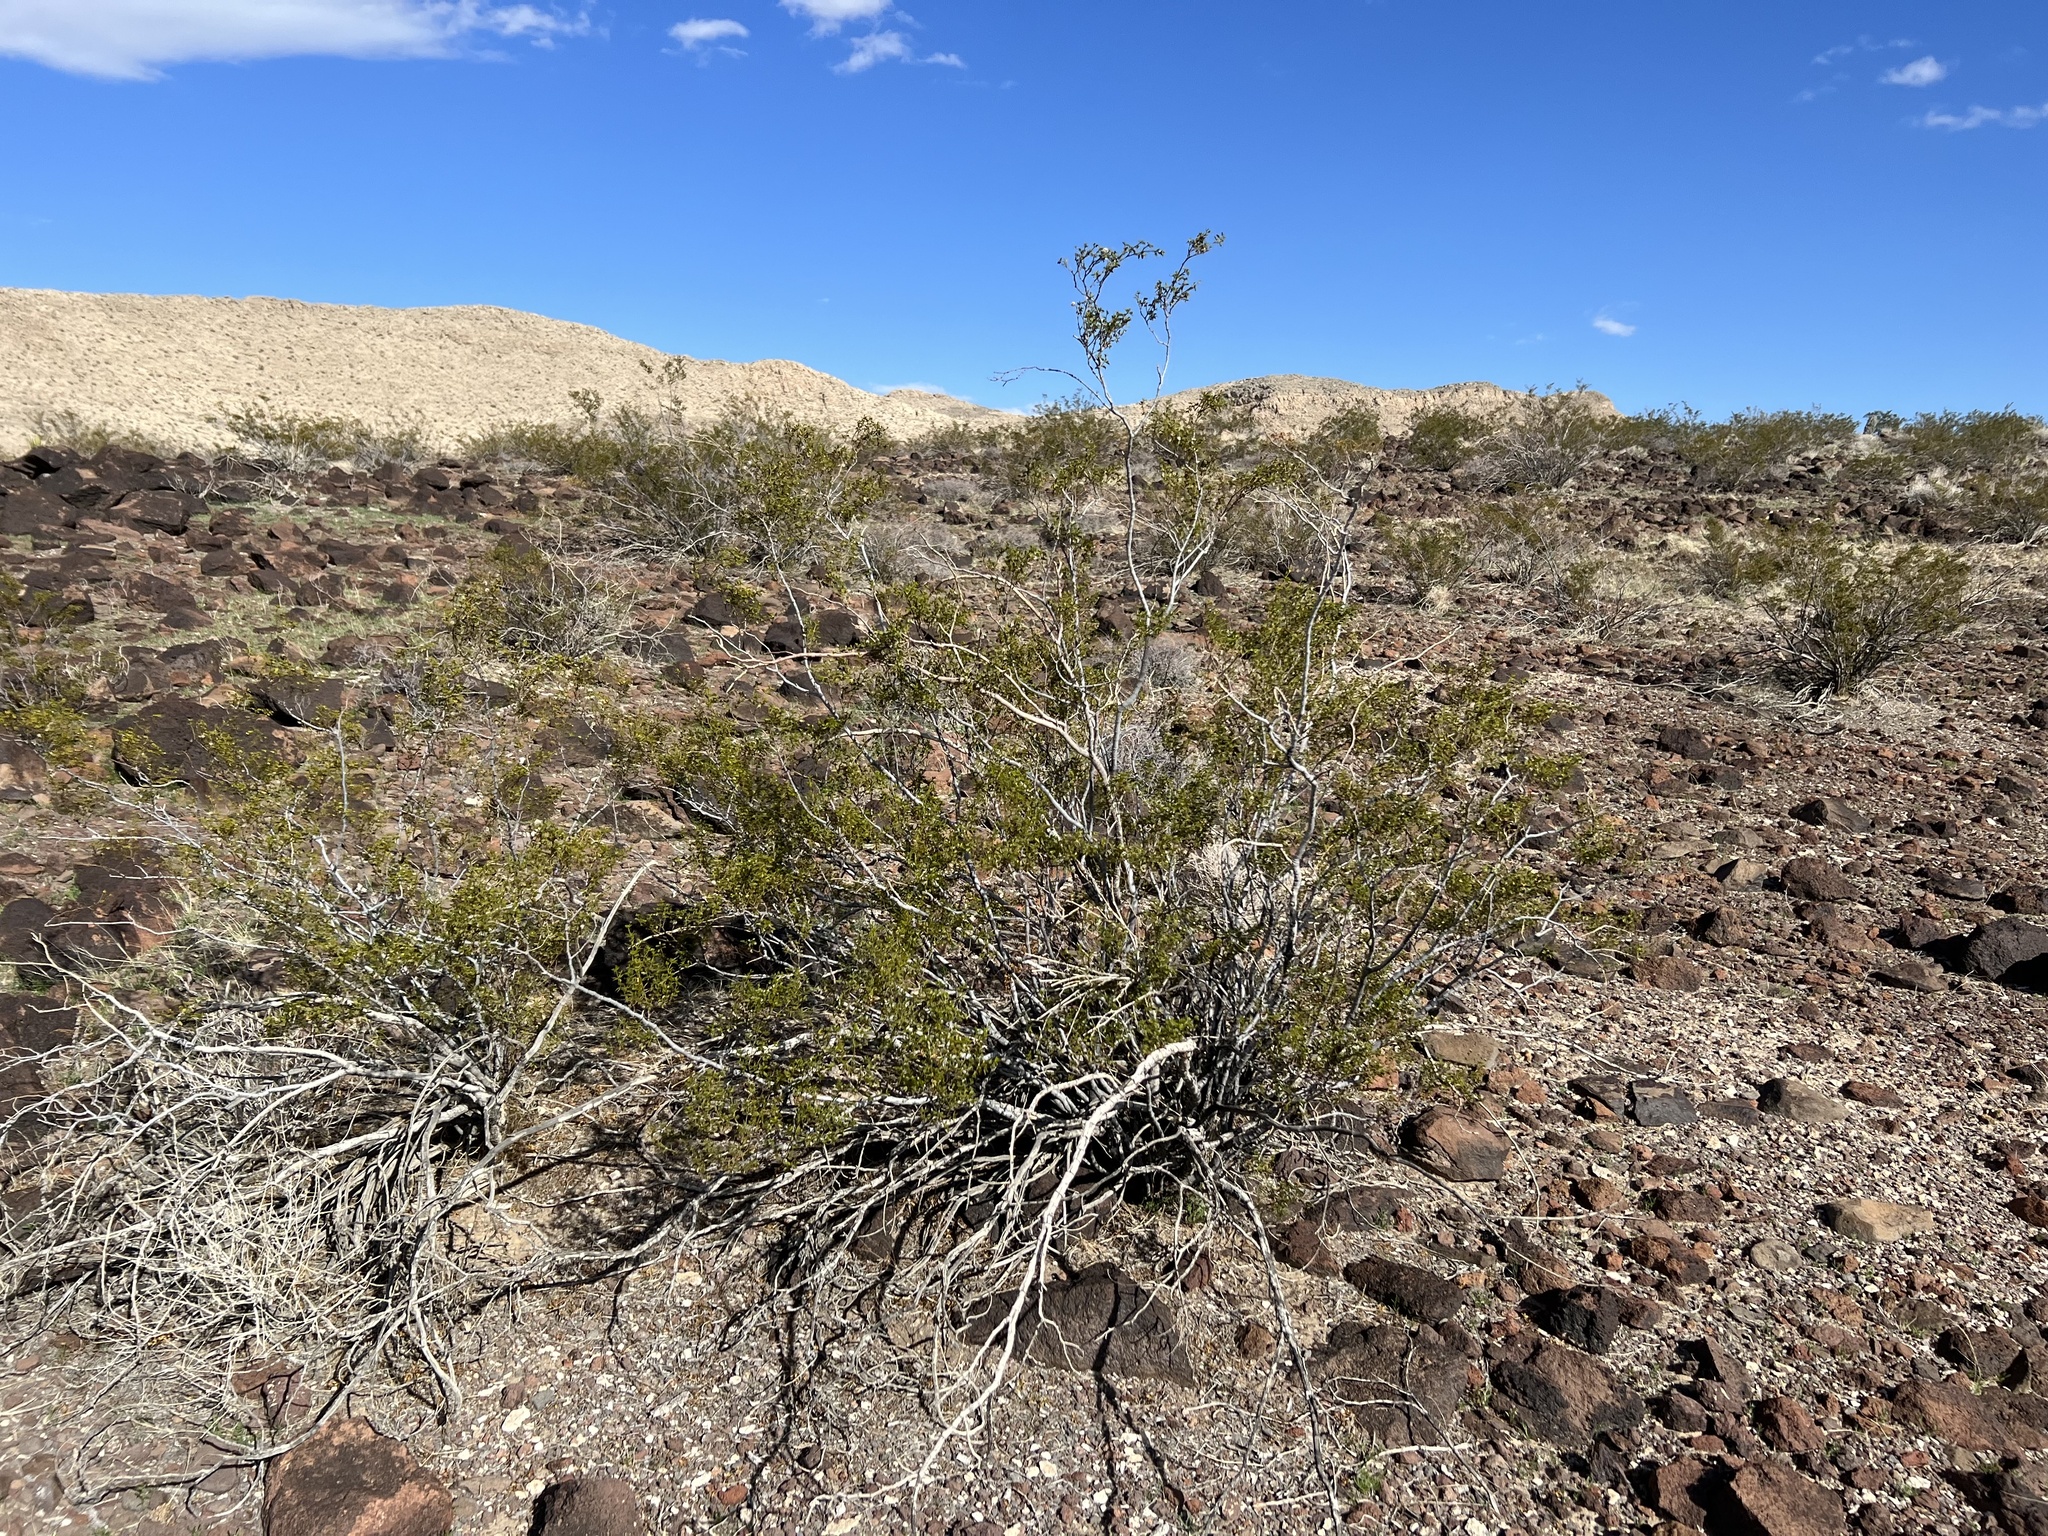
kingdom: Plantae
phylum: Tracheophyta
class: Magnoliopsida
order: Zygophyllales
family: Zygophyllaceae
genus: Larrea
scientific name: Larrea tridentata
